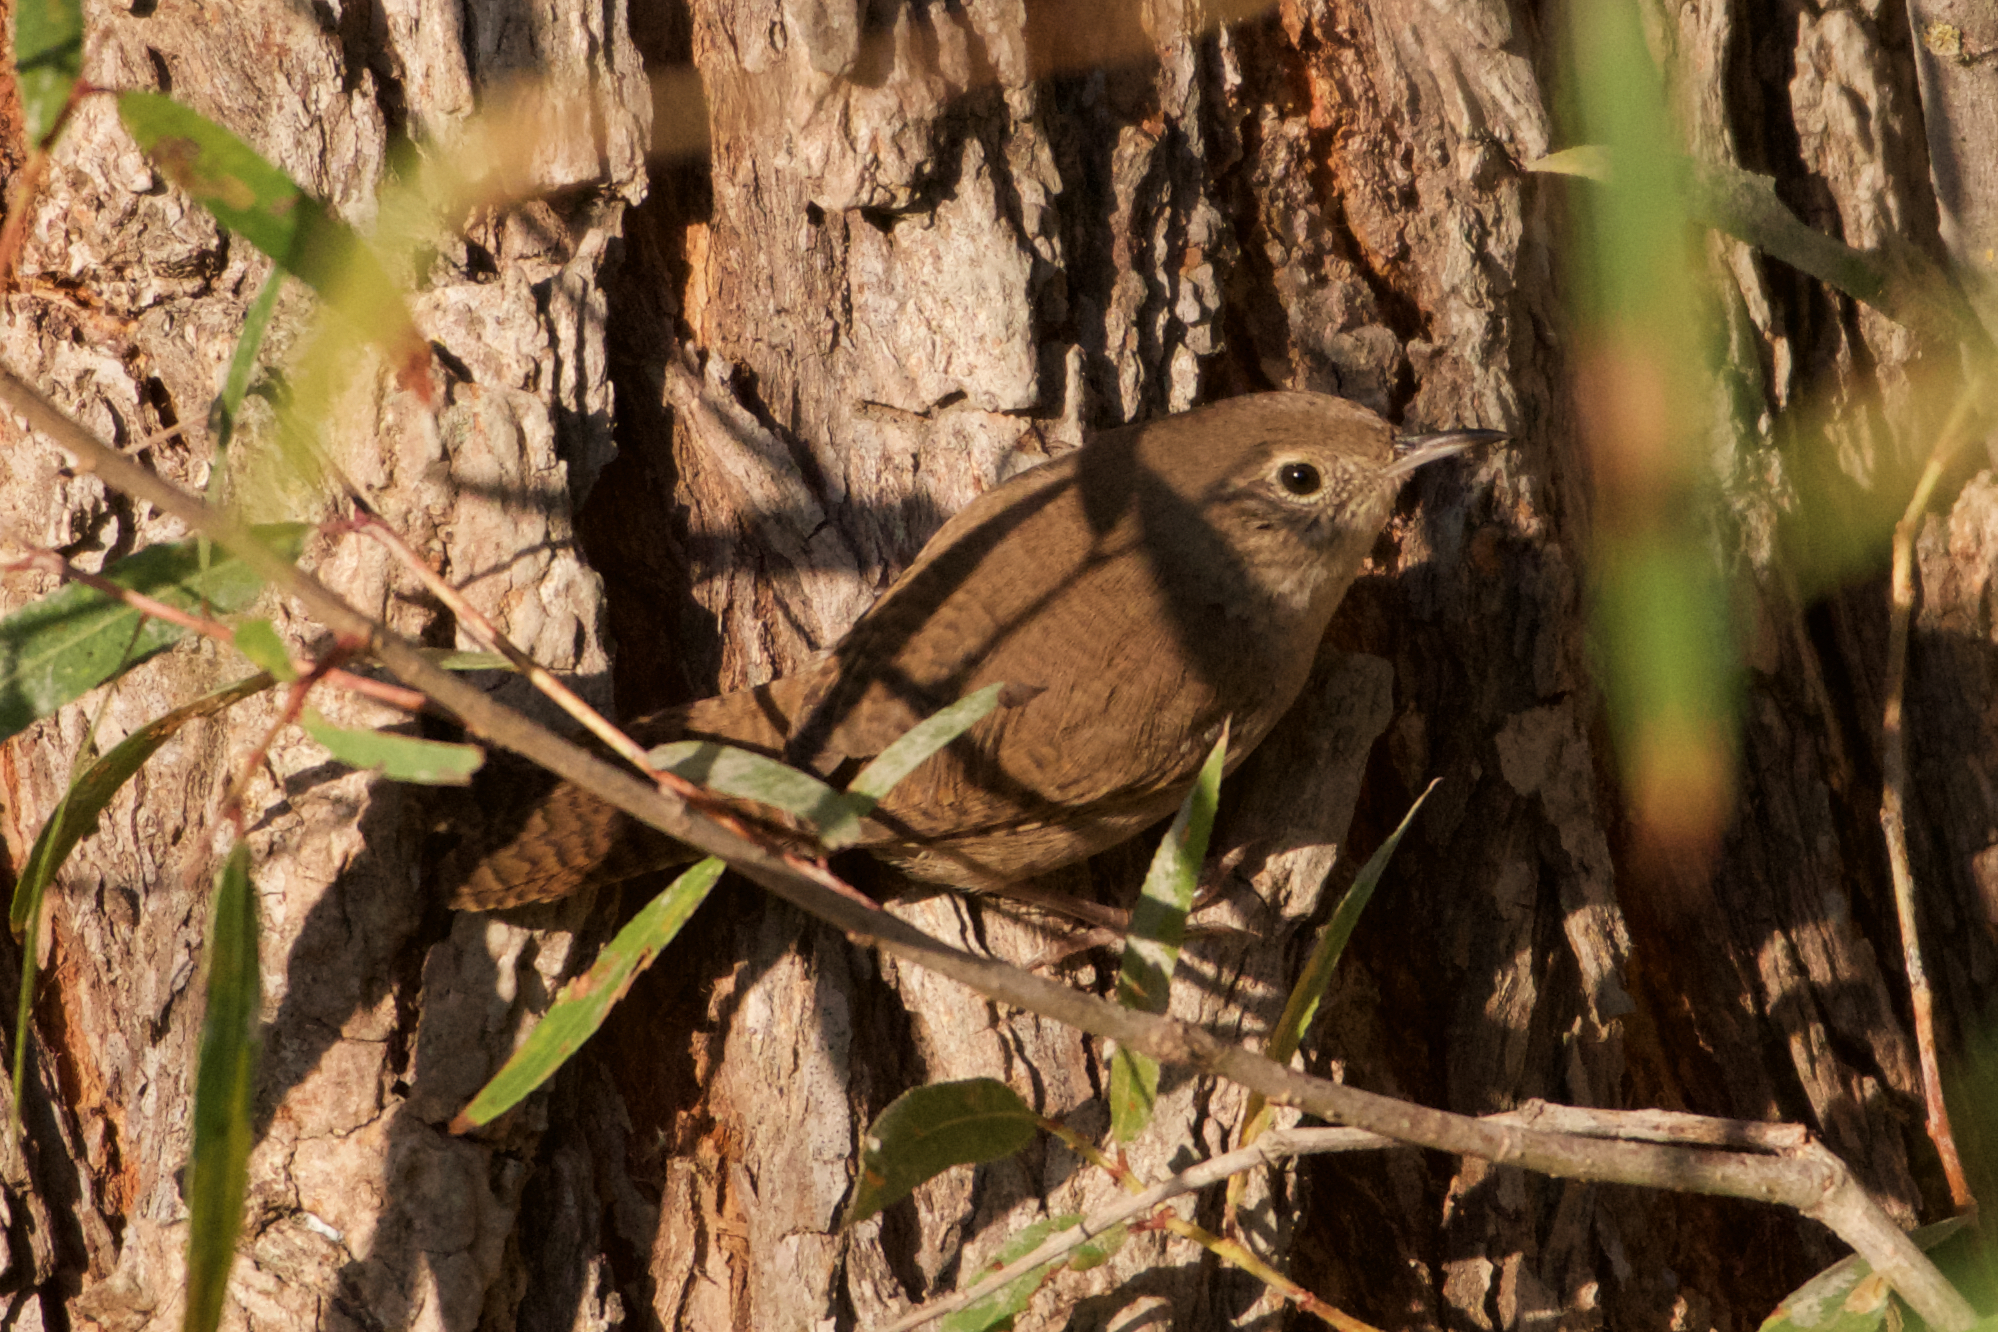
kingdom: Animalia
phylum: Chordata
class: Aves
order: Passeriformes
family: Troglodytidae
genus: Troglodytes
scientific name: Troglodytes aedon
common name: House wren
